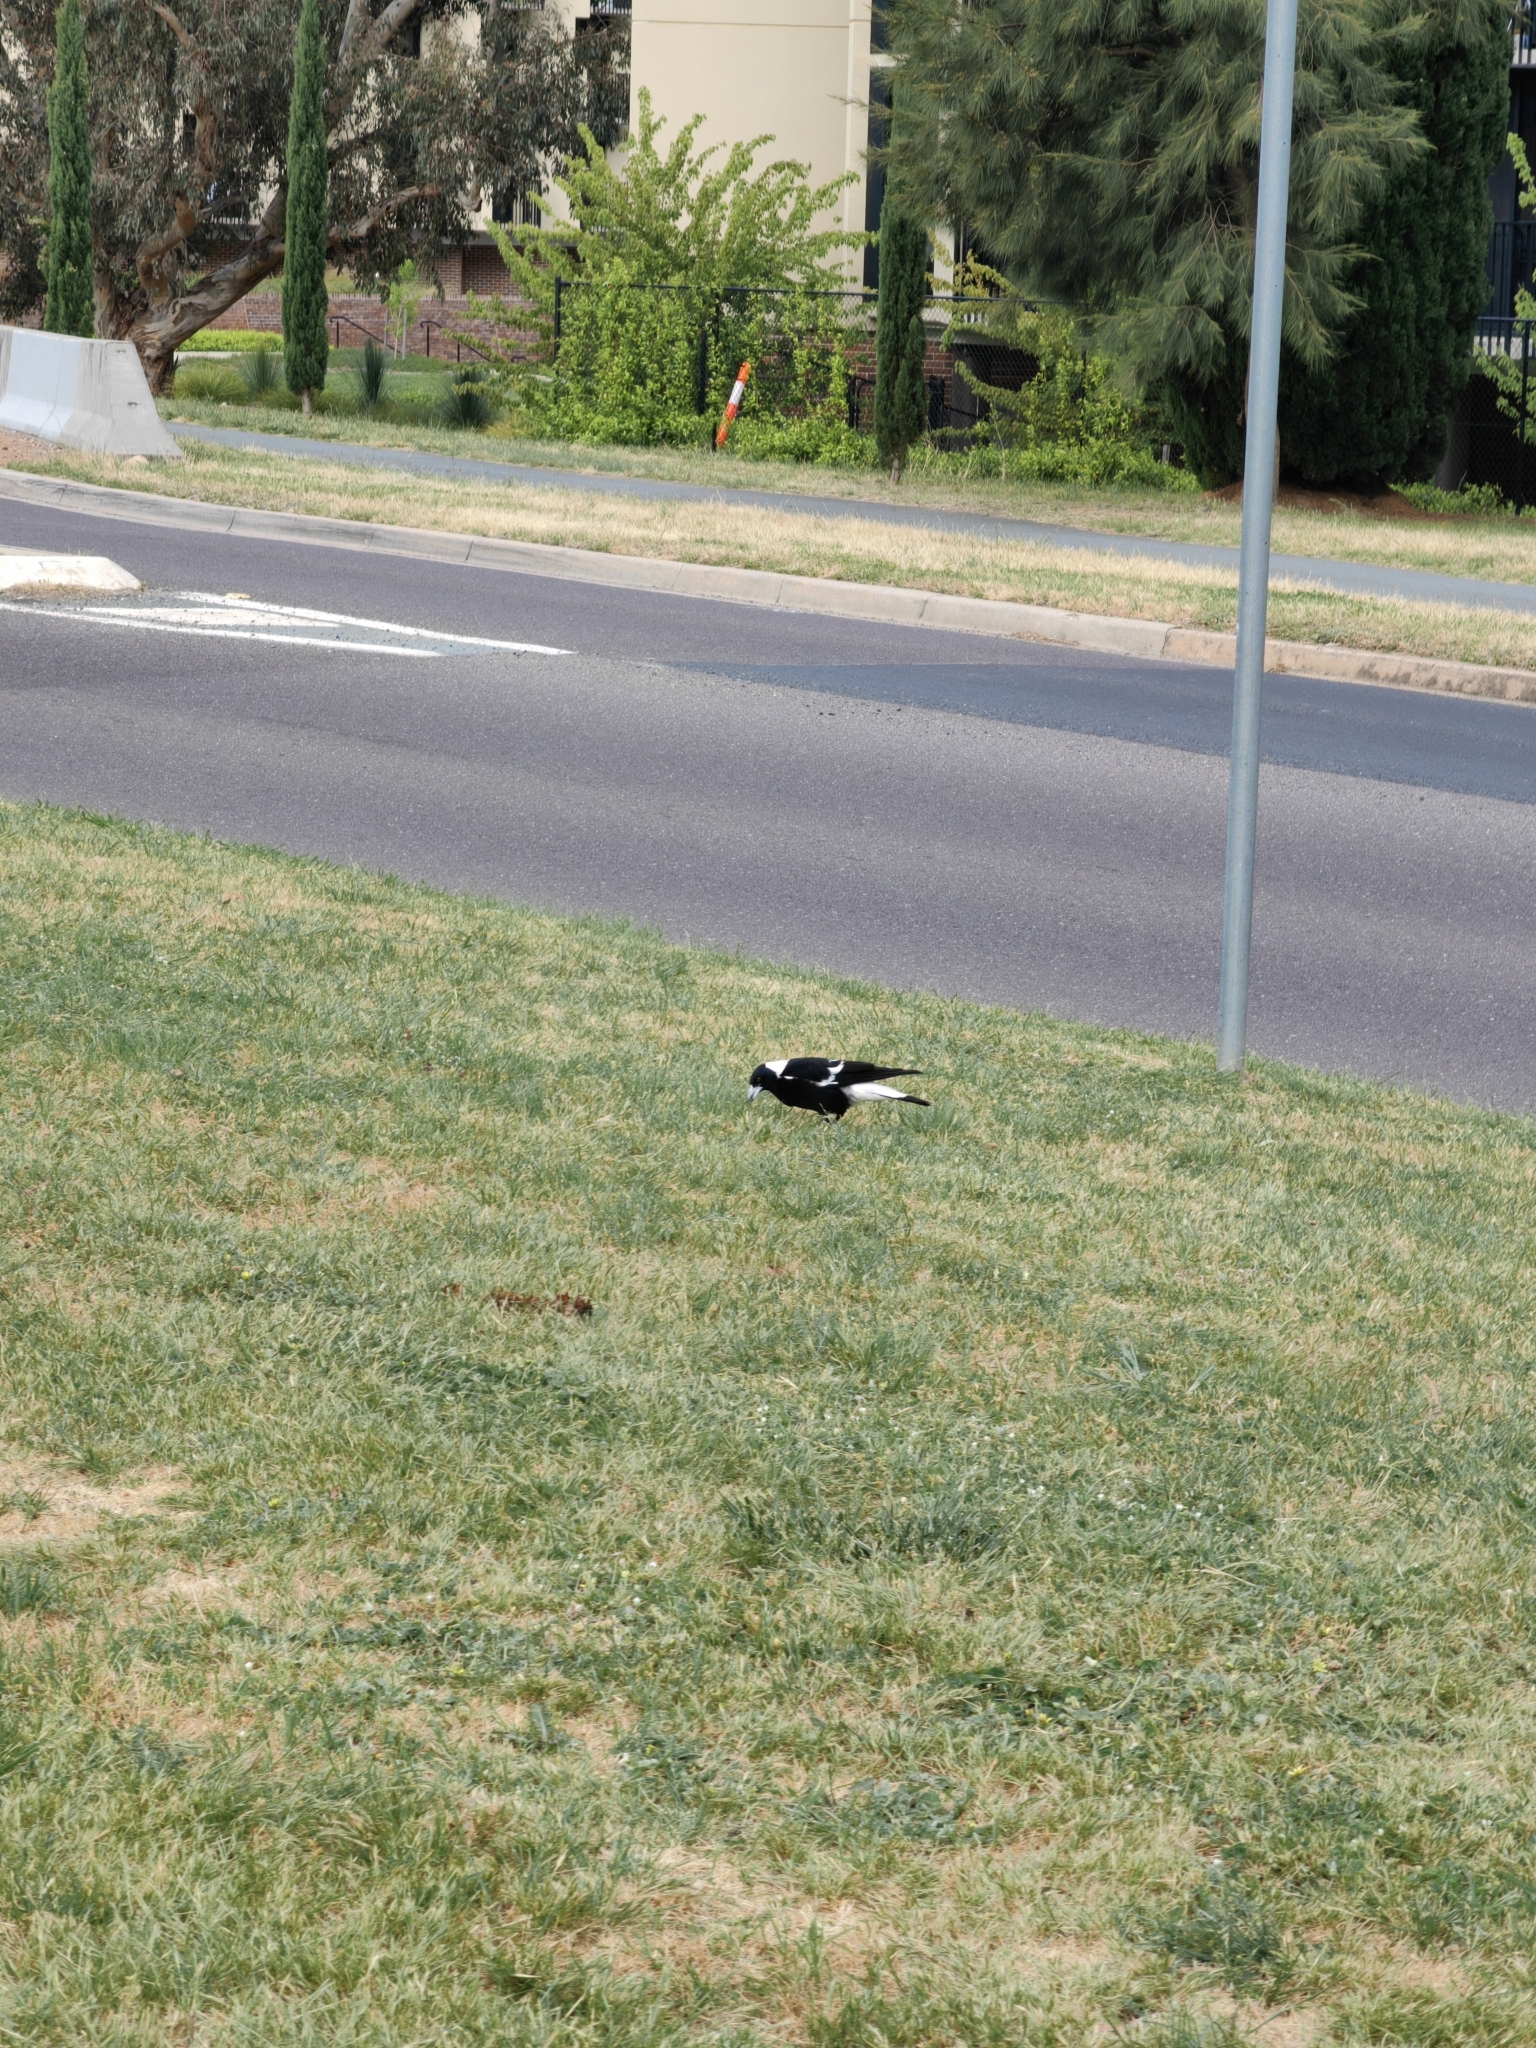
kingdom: Animalia
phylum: Chordata
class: Aves
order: Passeriformes
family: Cracticidae
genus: Gymnorhina
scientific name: Gymnorhina tibicen
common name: Australian magpie
